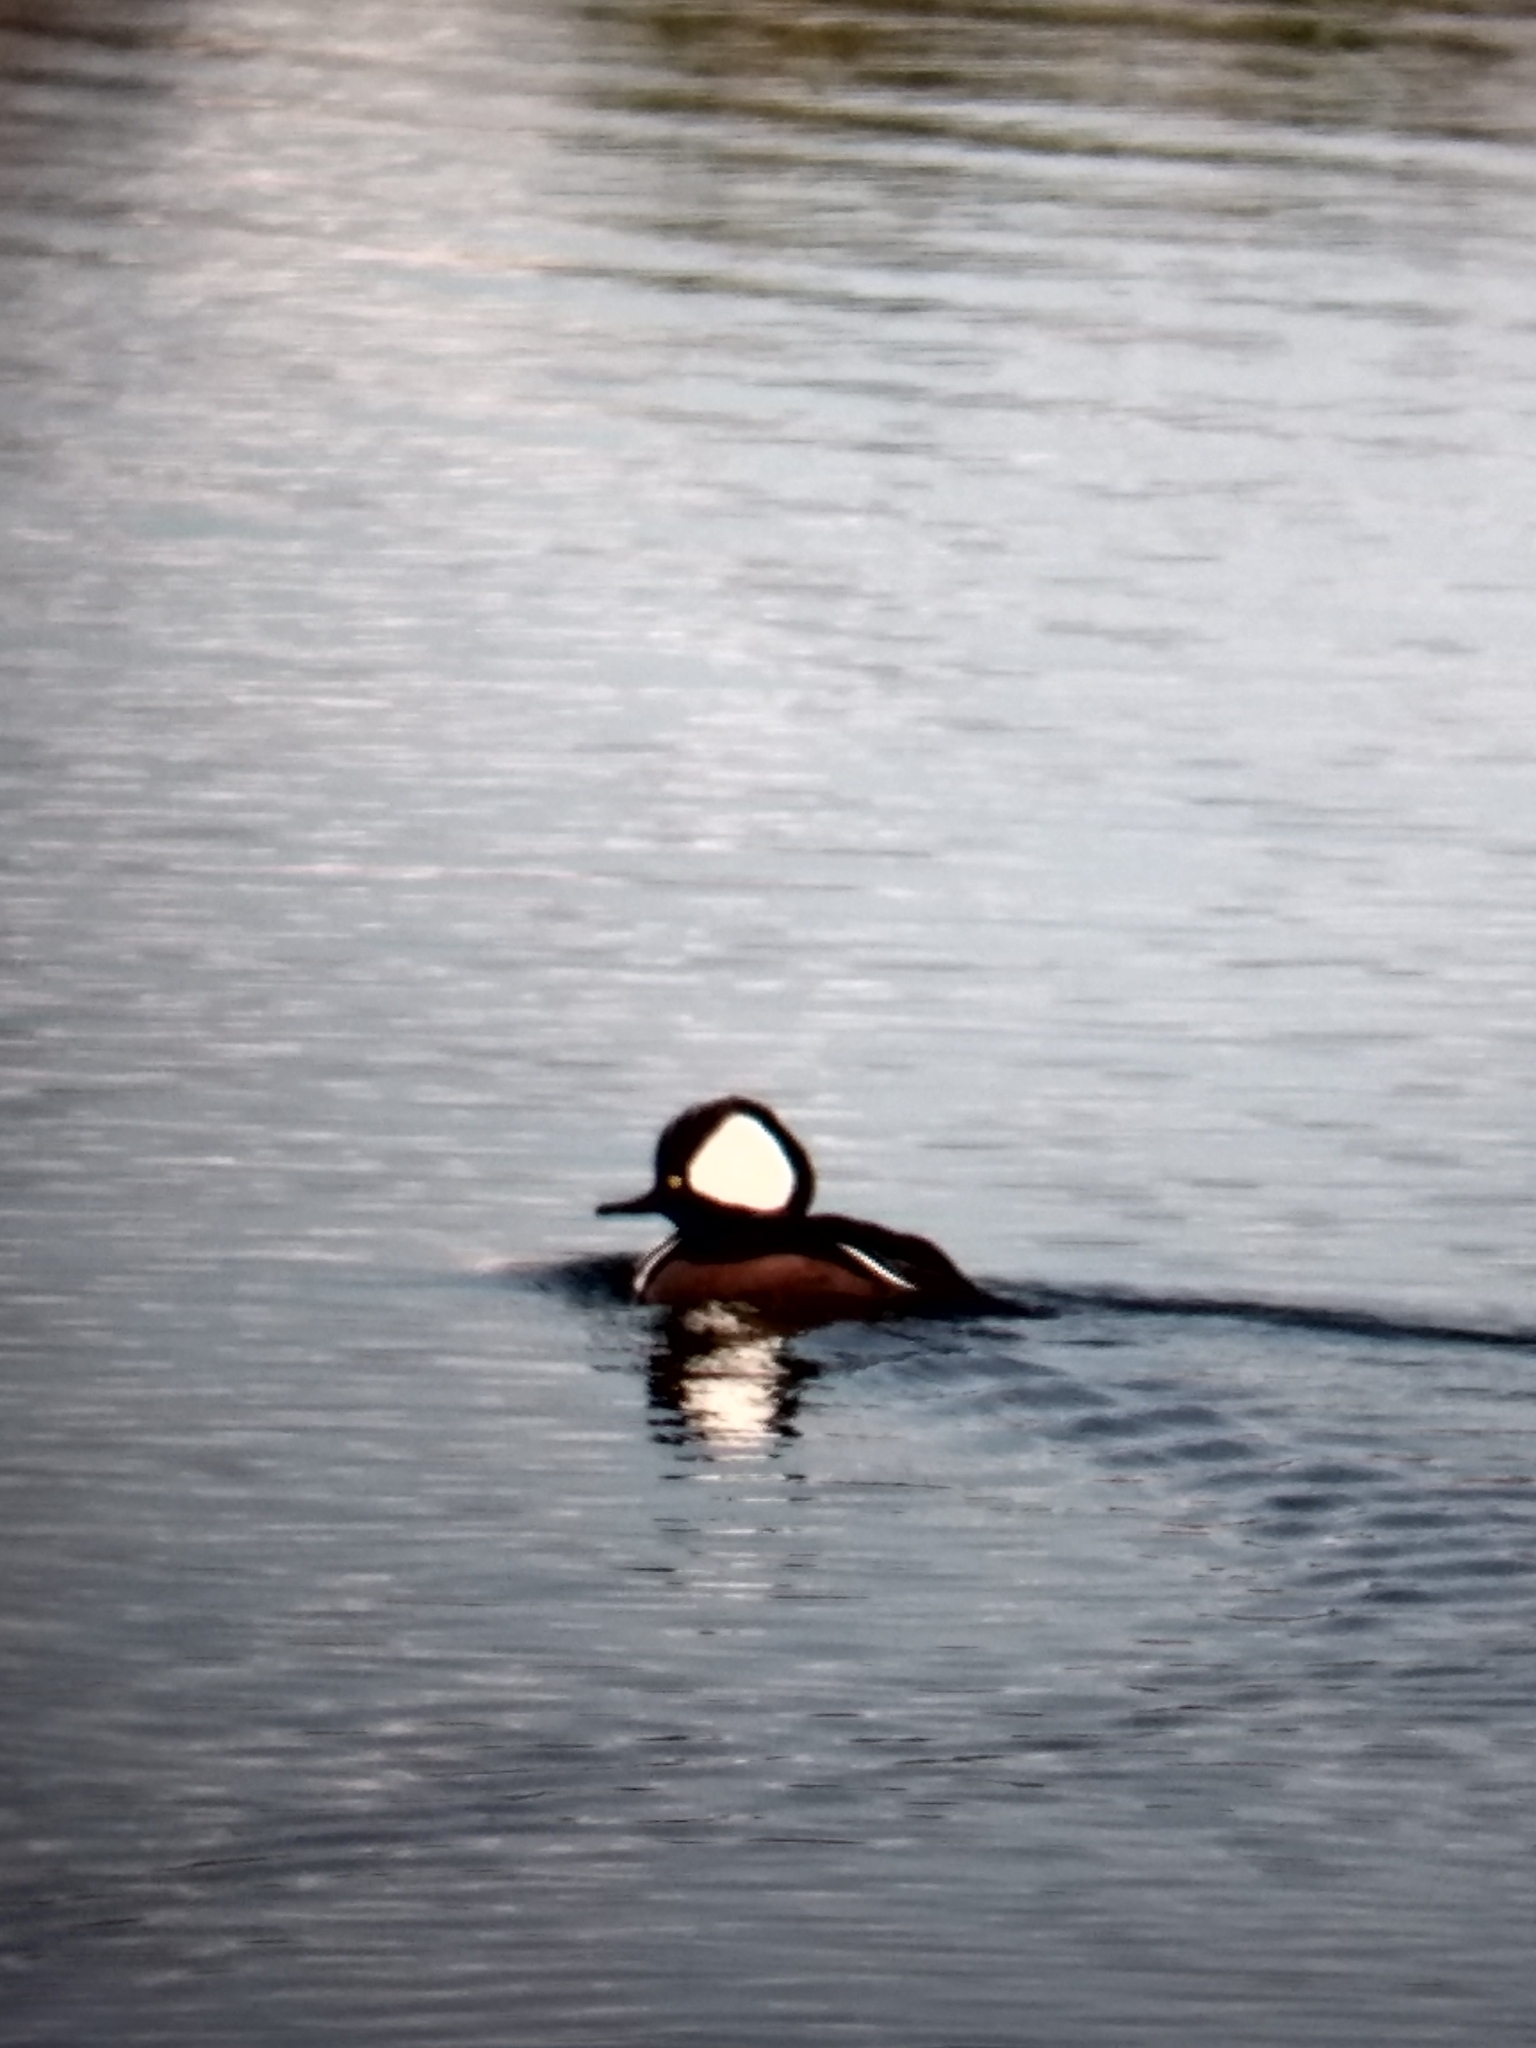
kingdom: Animalia
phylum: Chordata
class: Aves
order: Anseriformes
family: Anatidae
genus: Lophodytes
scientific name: Lophodytes cucullatus
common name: Hooded merganser
